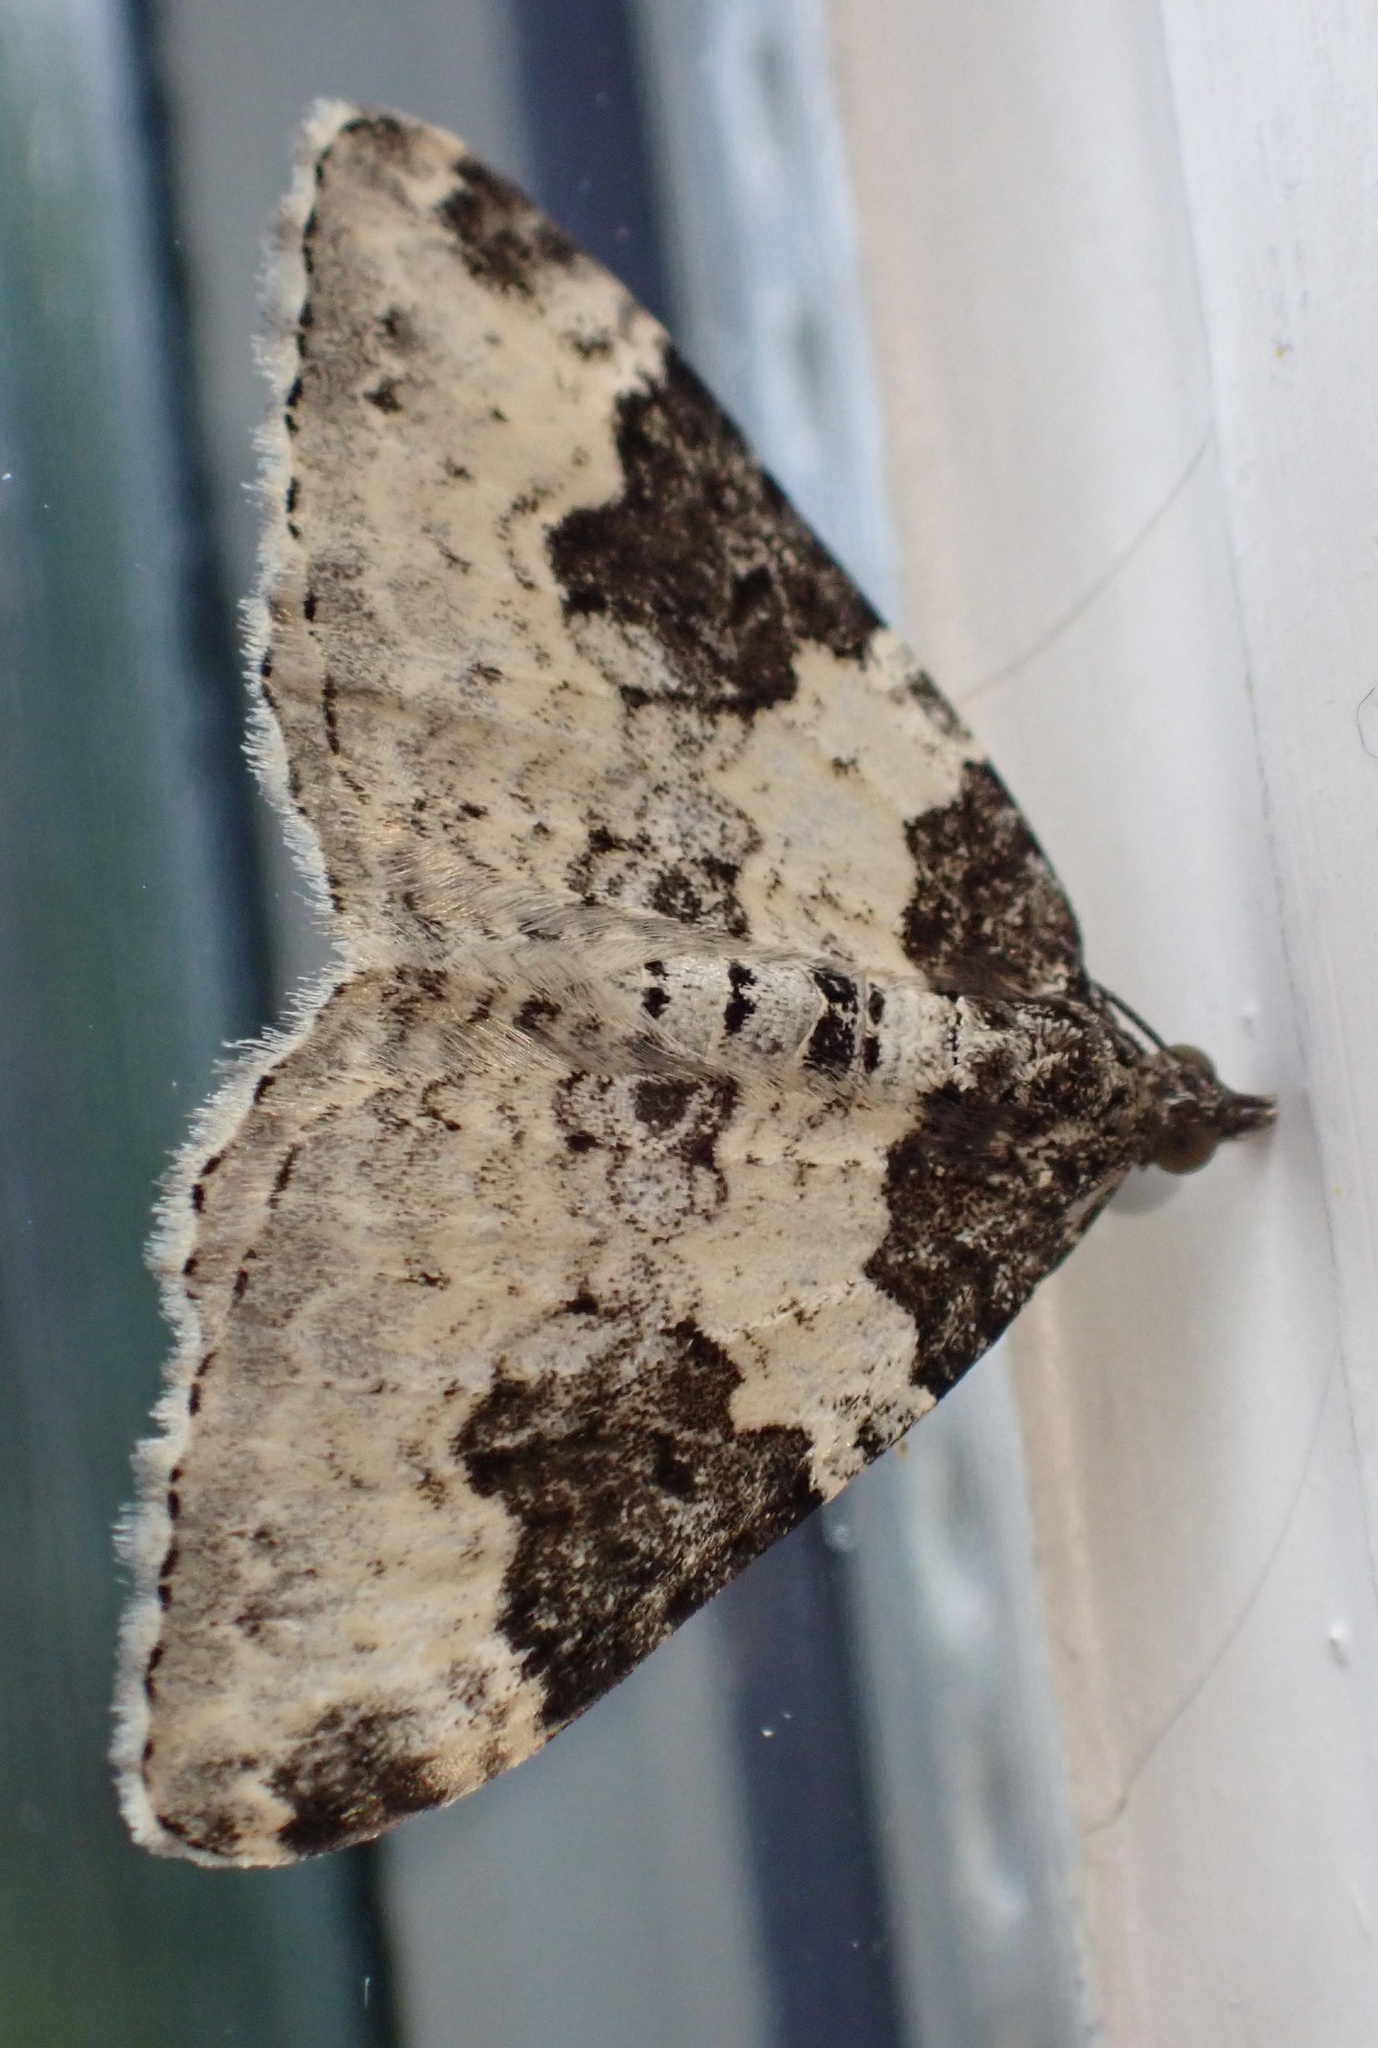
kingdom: Animalia
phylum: Arthropoda
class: Insecta
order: Lepidoptera
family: Geometridae
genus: Xanthorhoe
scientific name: Xanthorhoe fluctuata
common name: Garden carpet
